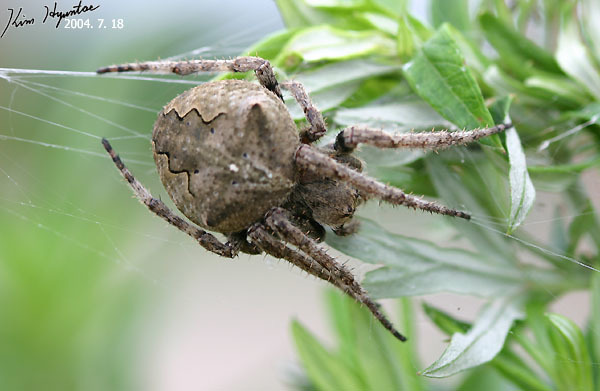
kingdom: Animalia
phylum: Arthropoda
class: Arachnida
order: Araneae
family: Araneidae
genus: Araneus
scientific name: Araneus ventricosus
